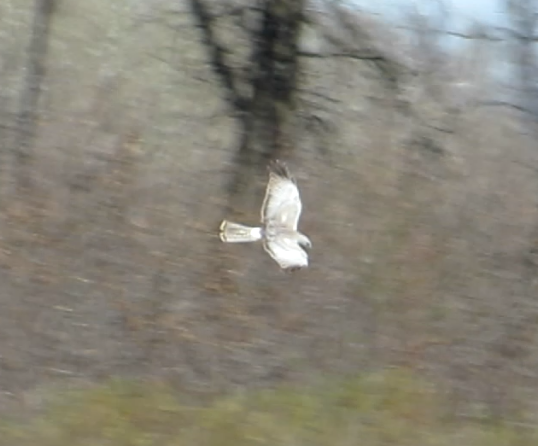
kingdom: Animalia
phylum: Chordata
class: Aves
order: Accipitriformes
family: Accipitridae
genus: Circus
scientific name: Circus cyaneus
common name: Hen harrier
